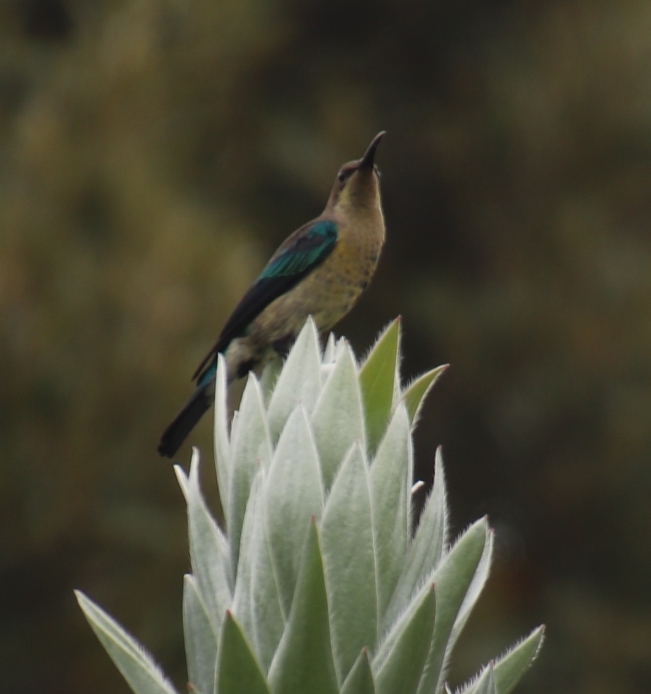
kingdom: Animalia
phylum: Chordata
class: Aves
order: Passeriformes
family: Nectariniidae
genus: Nectarinia
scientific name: Nectarinia famosa
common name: Malachite sunbird
